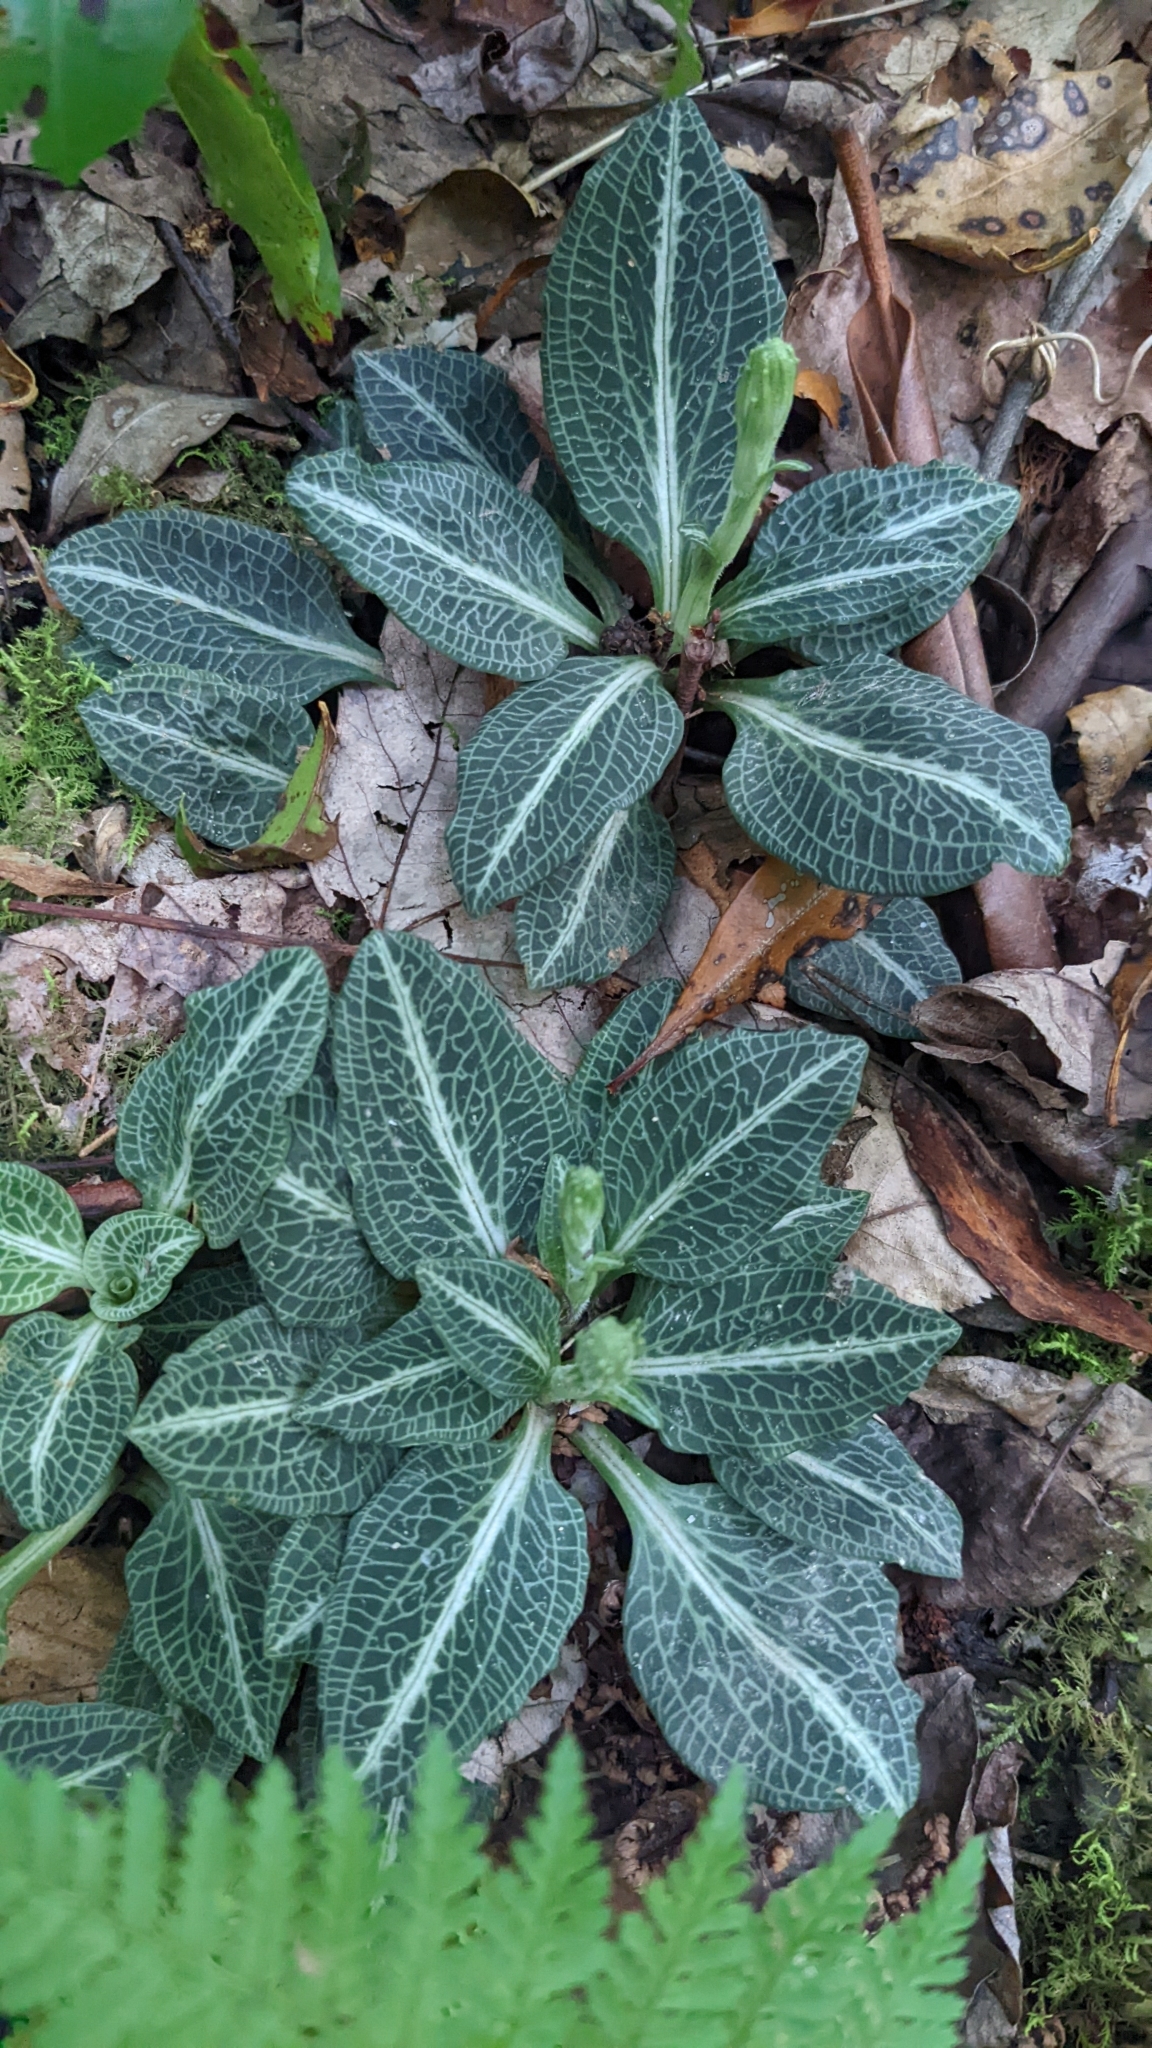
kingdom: Plantae
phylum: Tracheophyta
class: Liliopsida
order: Asparagales
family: Orchidaceae
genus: Goodyera
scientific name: Goodyera pubescens
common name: Downy rattlesnake-plantain
